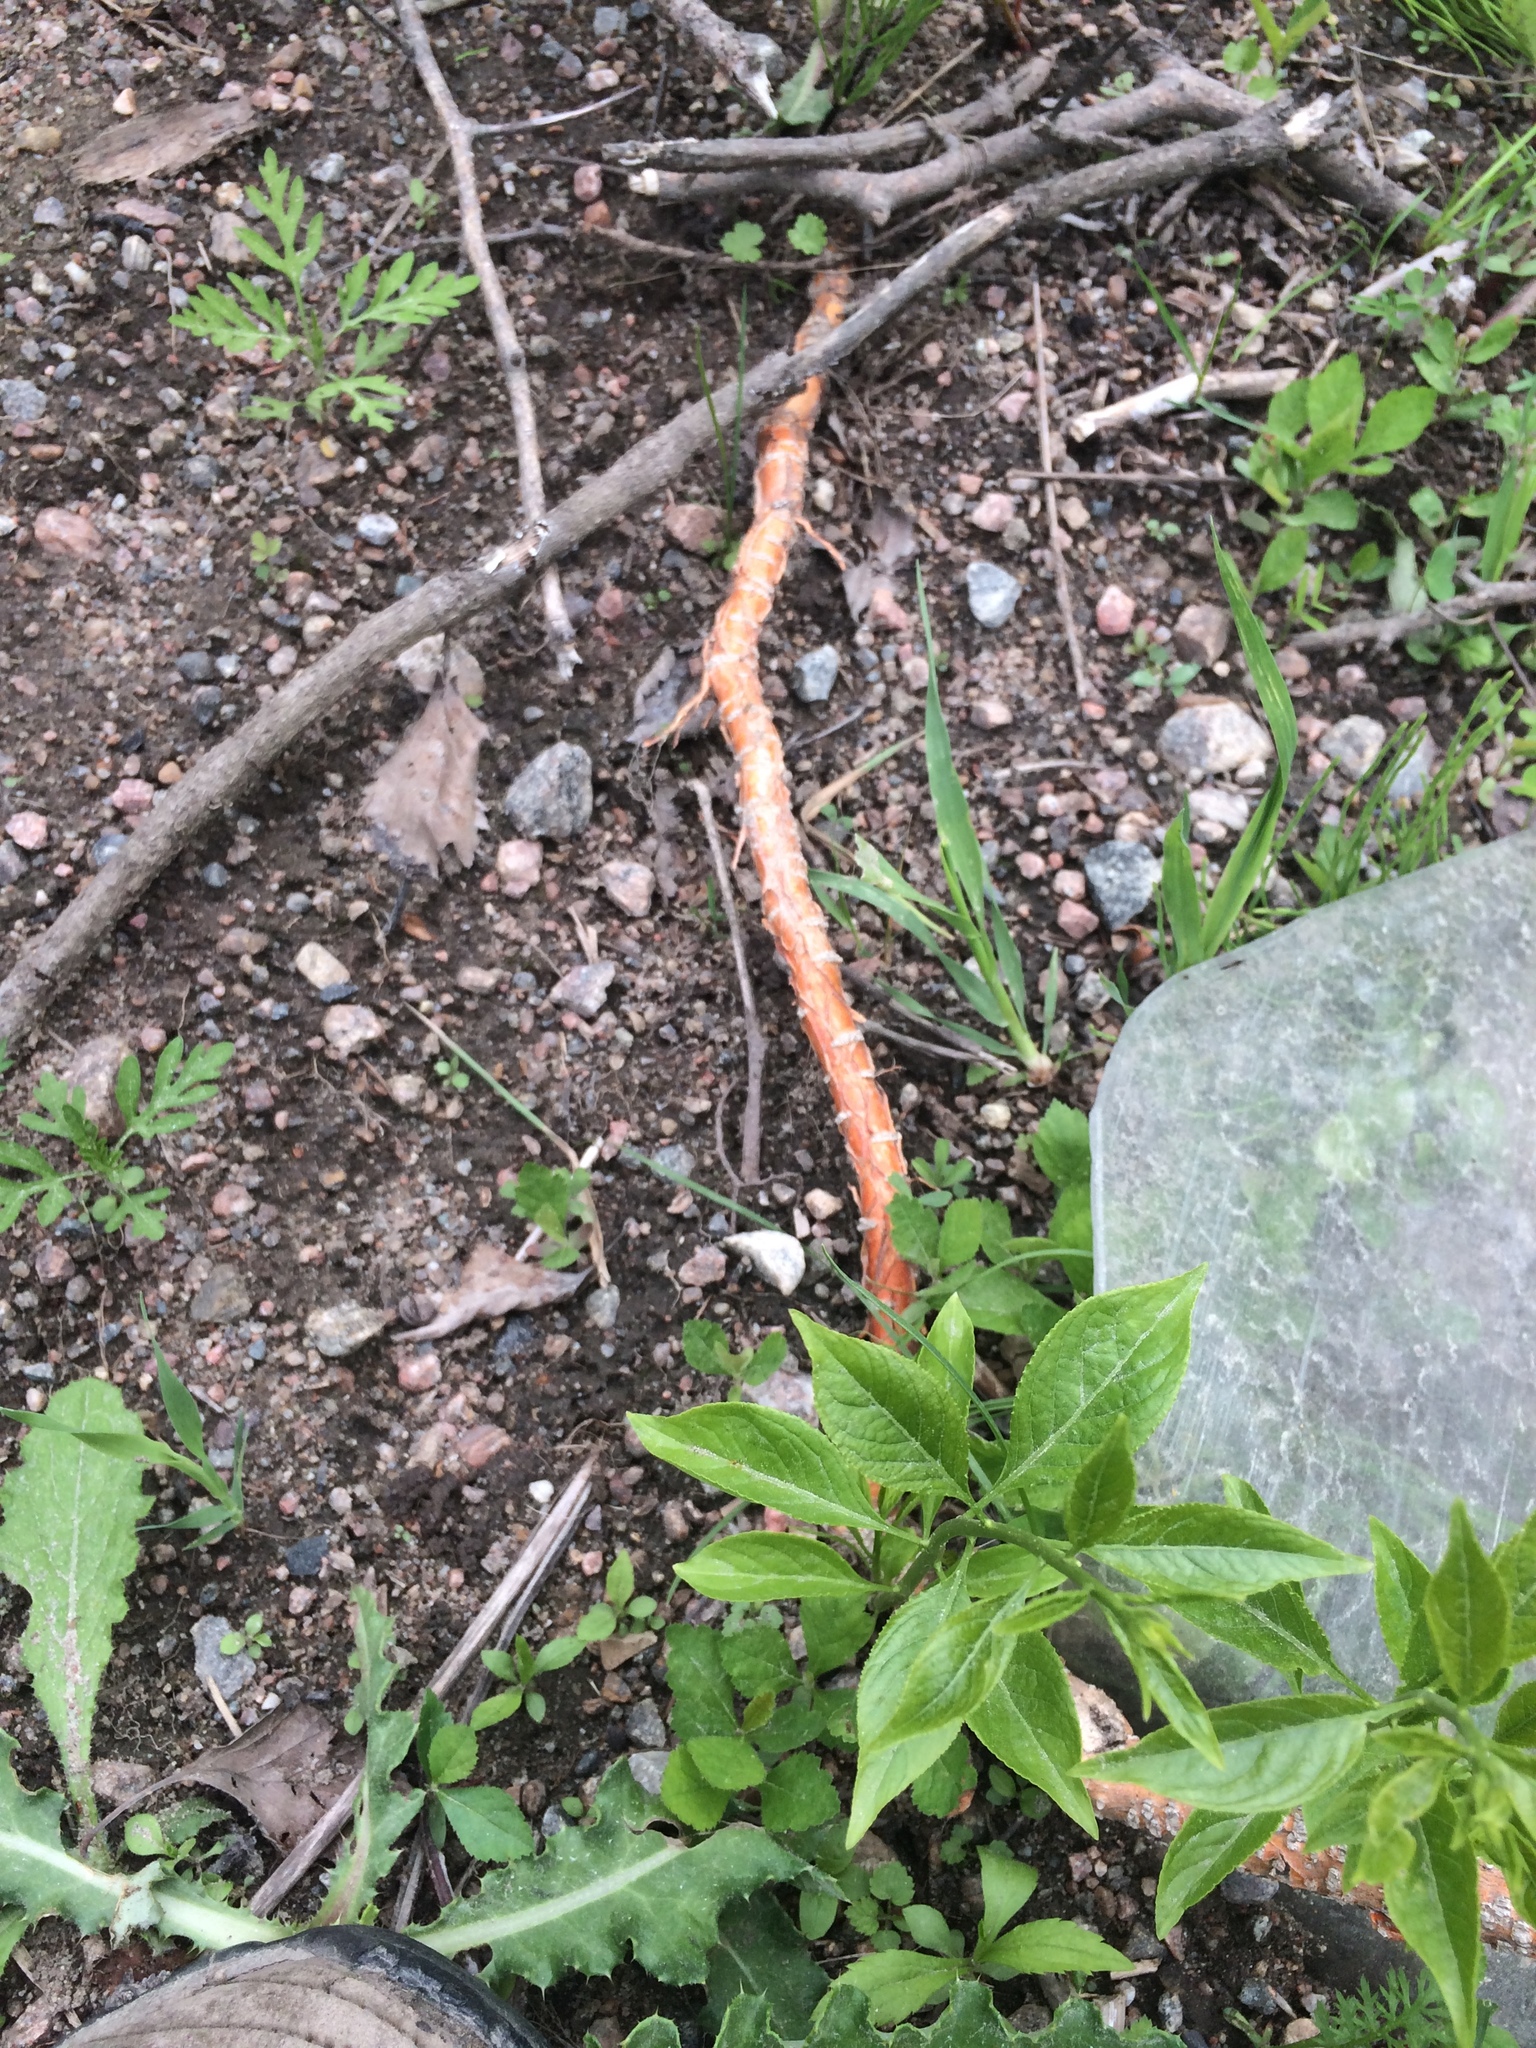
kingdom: Plantae
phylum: Tracheophyta
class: Magnoliopsida
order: Celastrales
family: Celastraceae
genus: Celastrus
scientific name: Celastrus scandens
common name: American bittersweet
